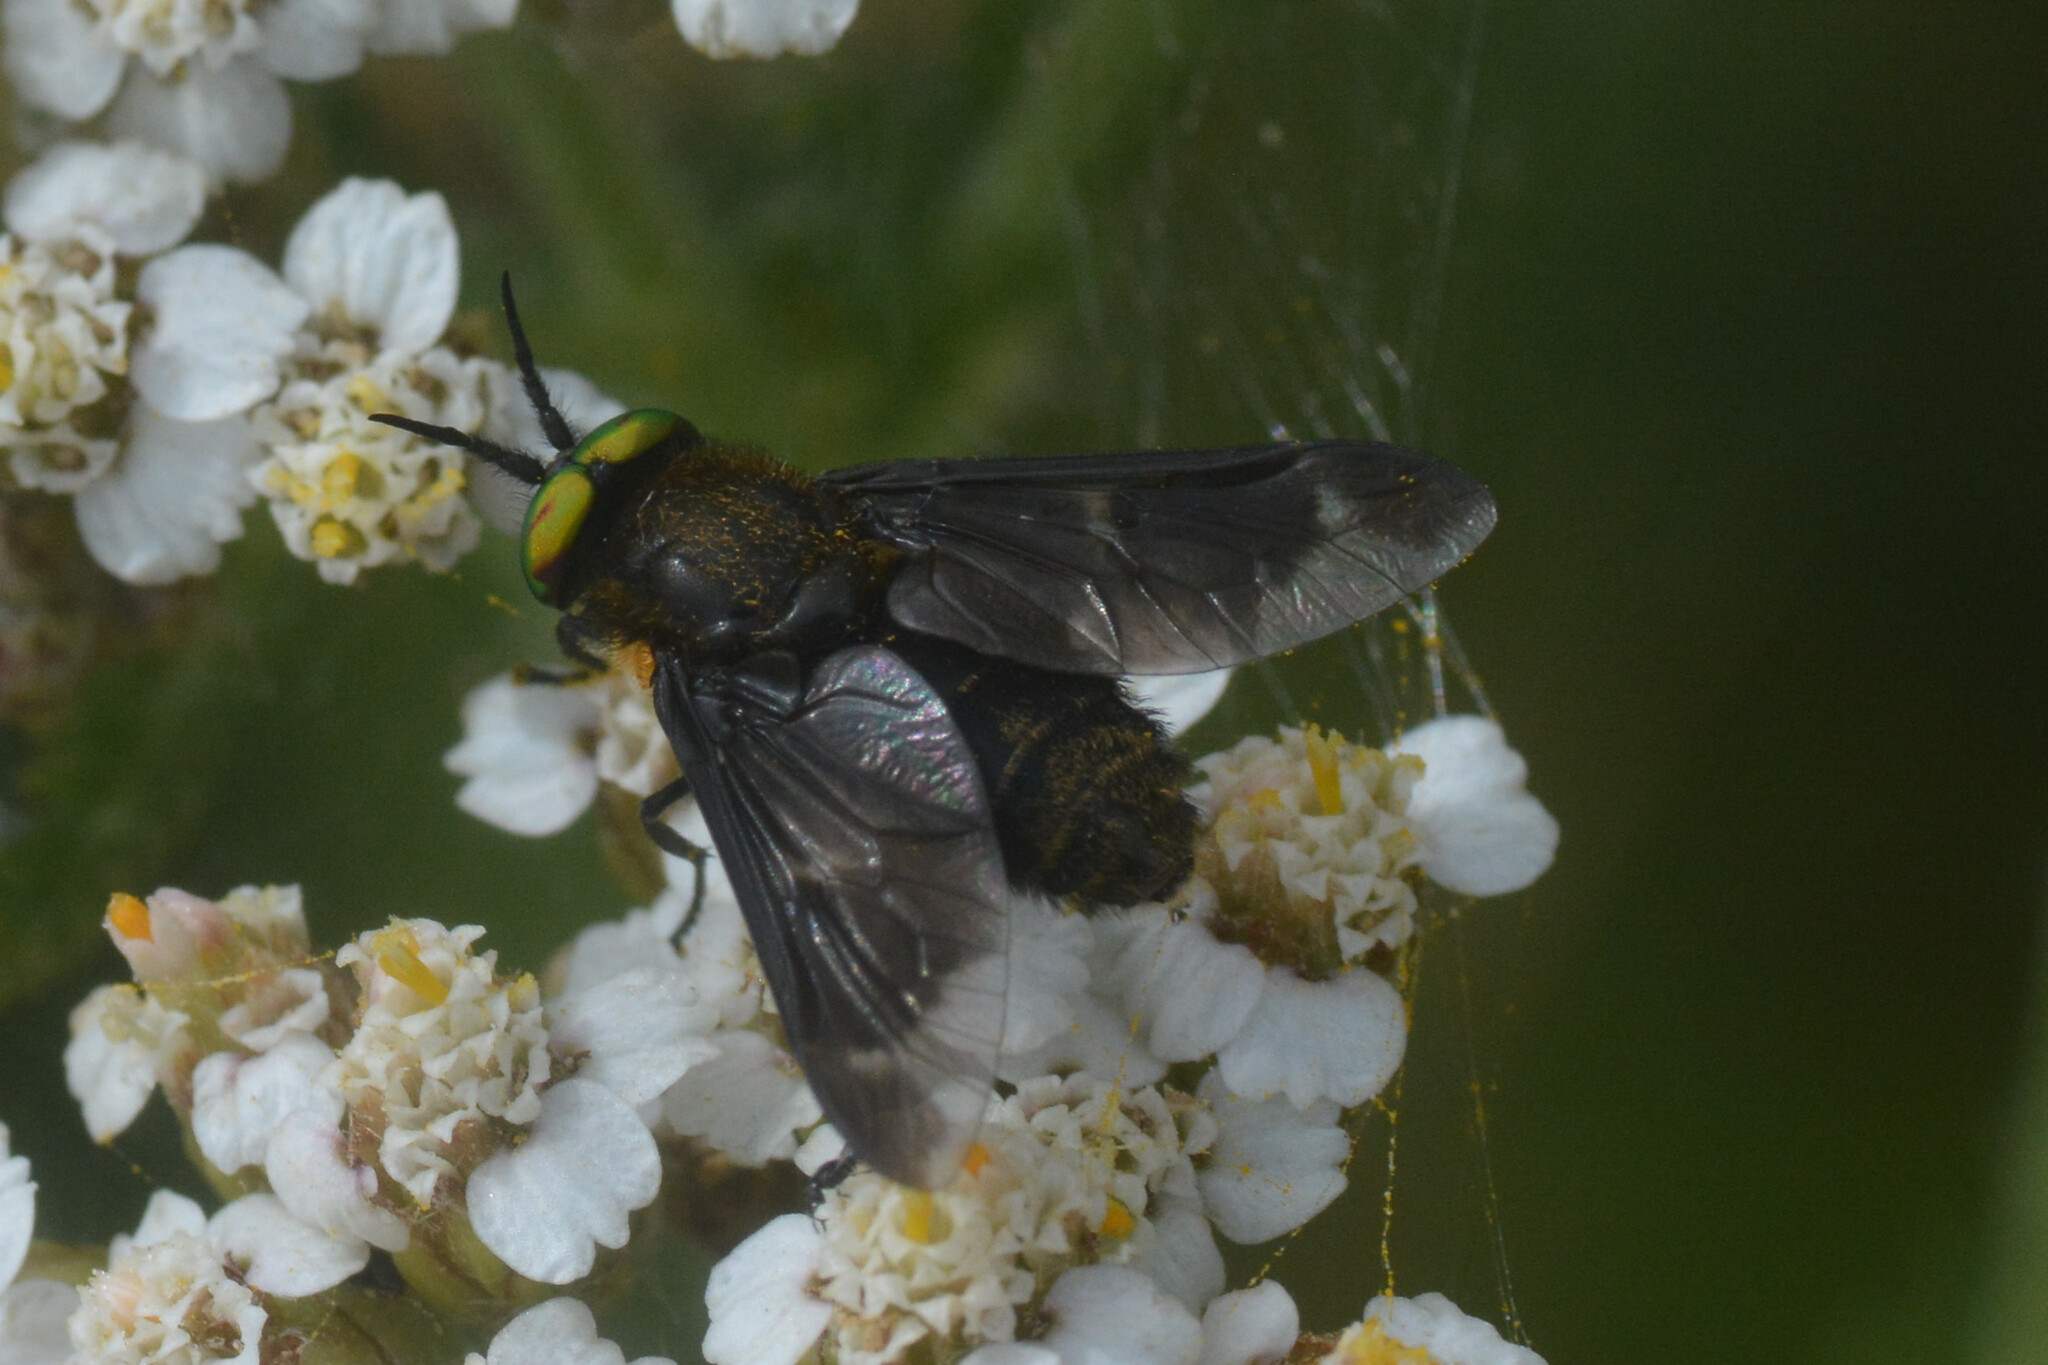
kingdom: Animalia
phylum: Arthropoda
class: Insecta
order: Diptera
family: Tabanidae
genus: Chrysops
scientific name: Chrysops caecutiens
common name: Splayed deerfly
